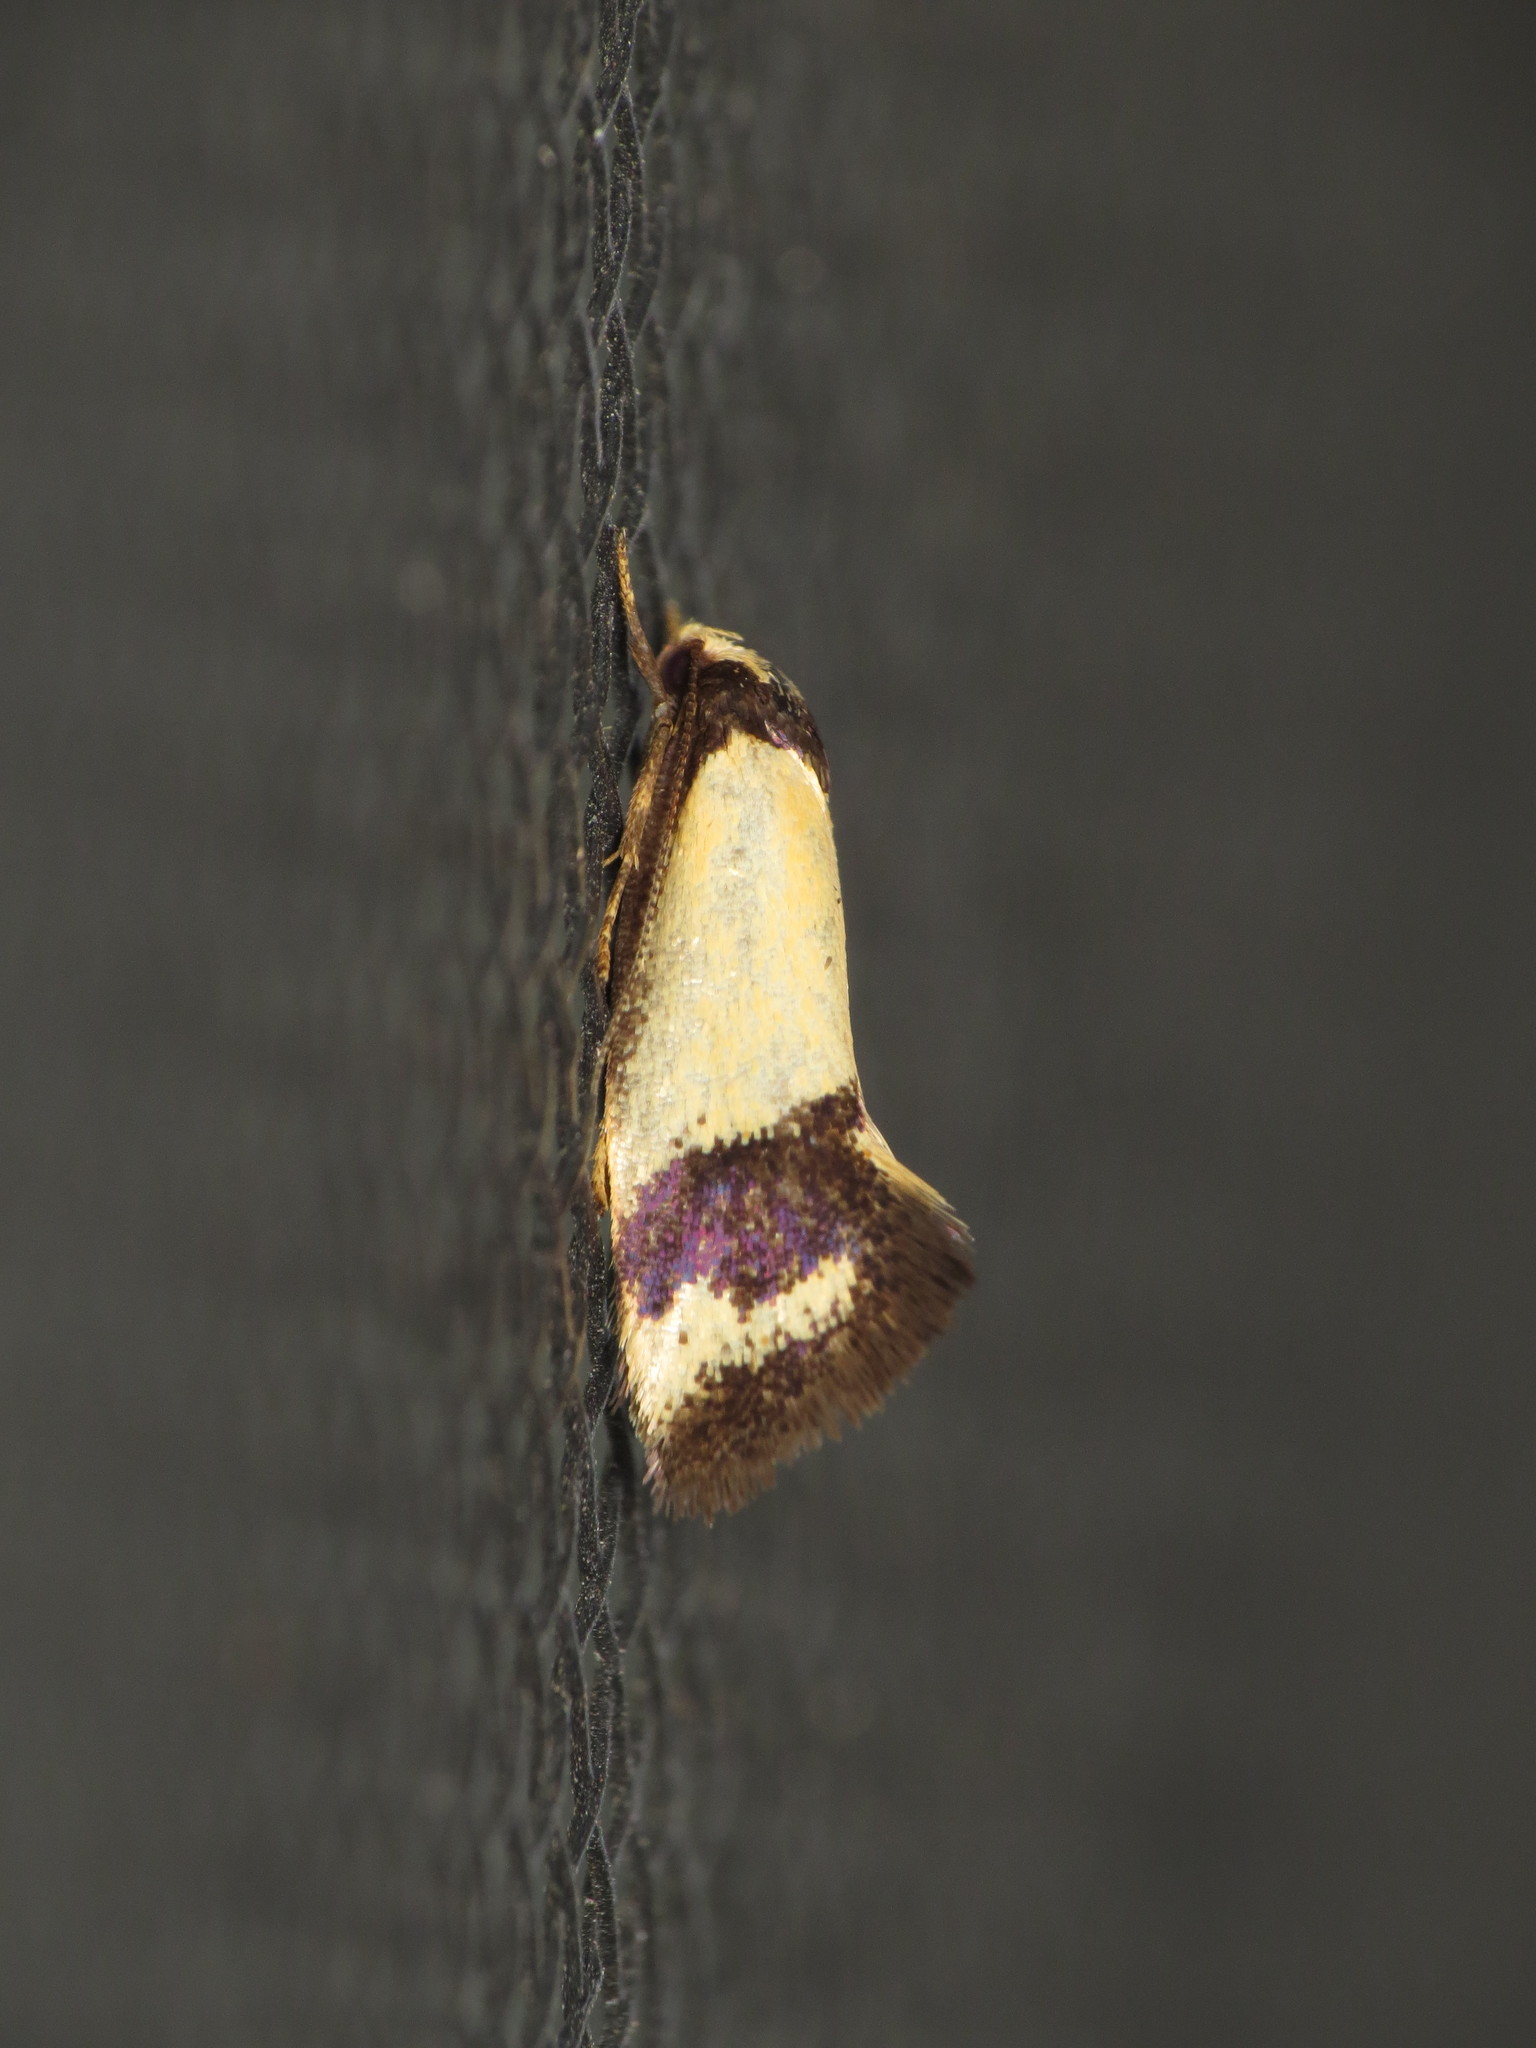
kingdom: Animalia
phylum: Arthropoda
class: Insecta
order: Lepidoptera
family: Oecophoridae
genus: Olbonoma
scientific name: Olbonoma triptycha
